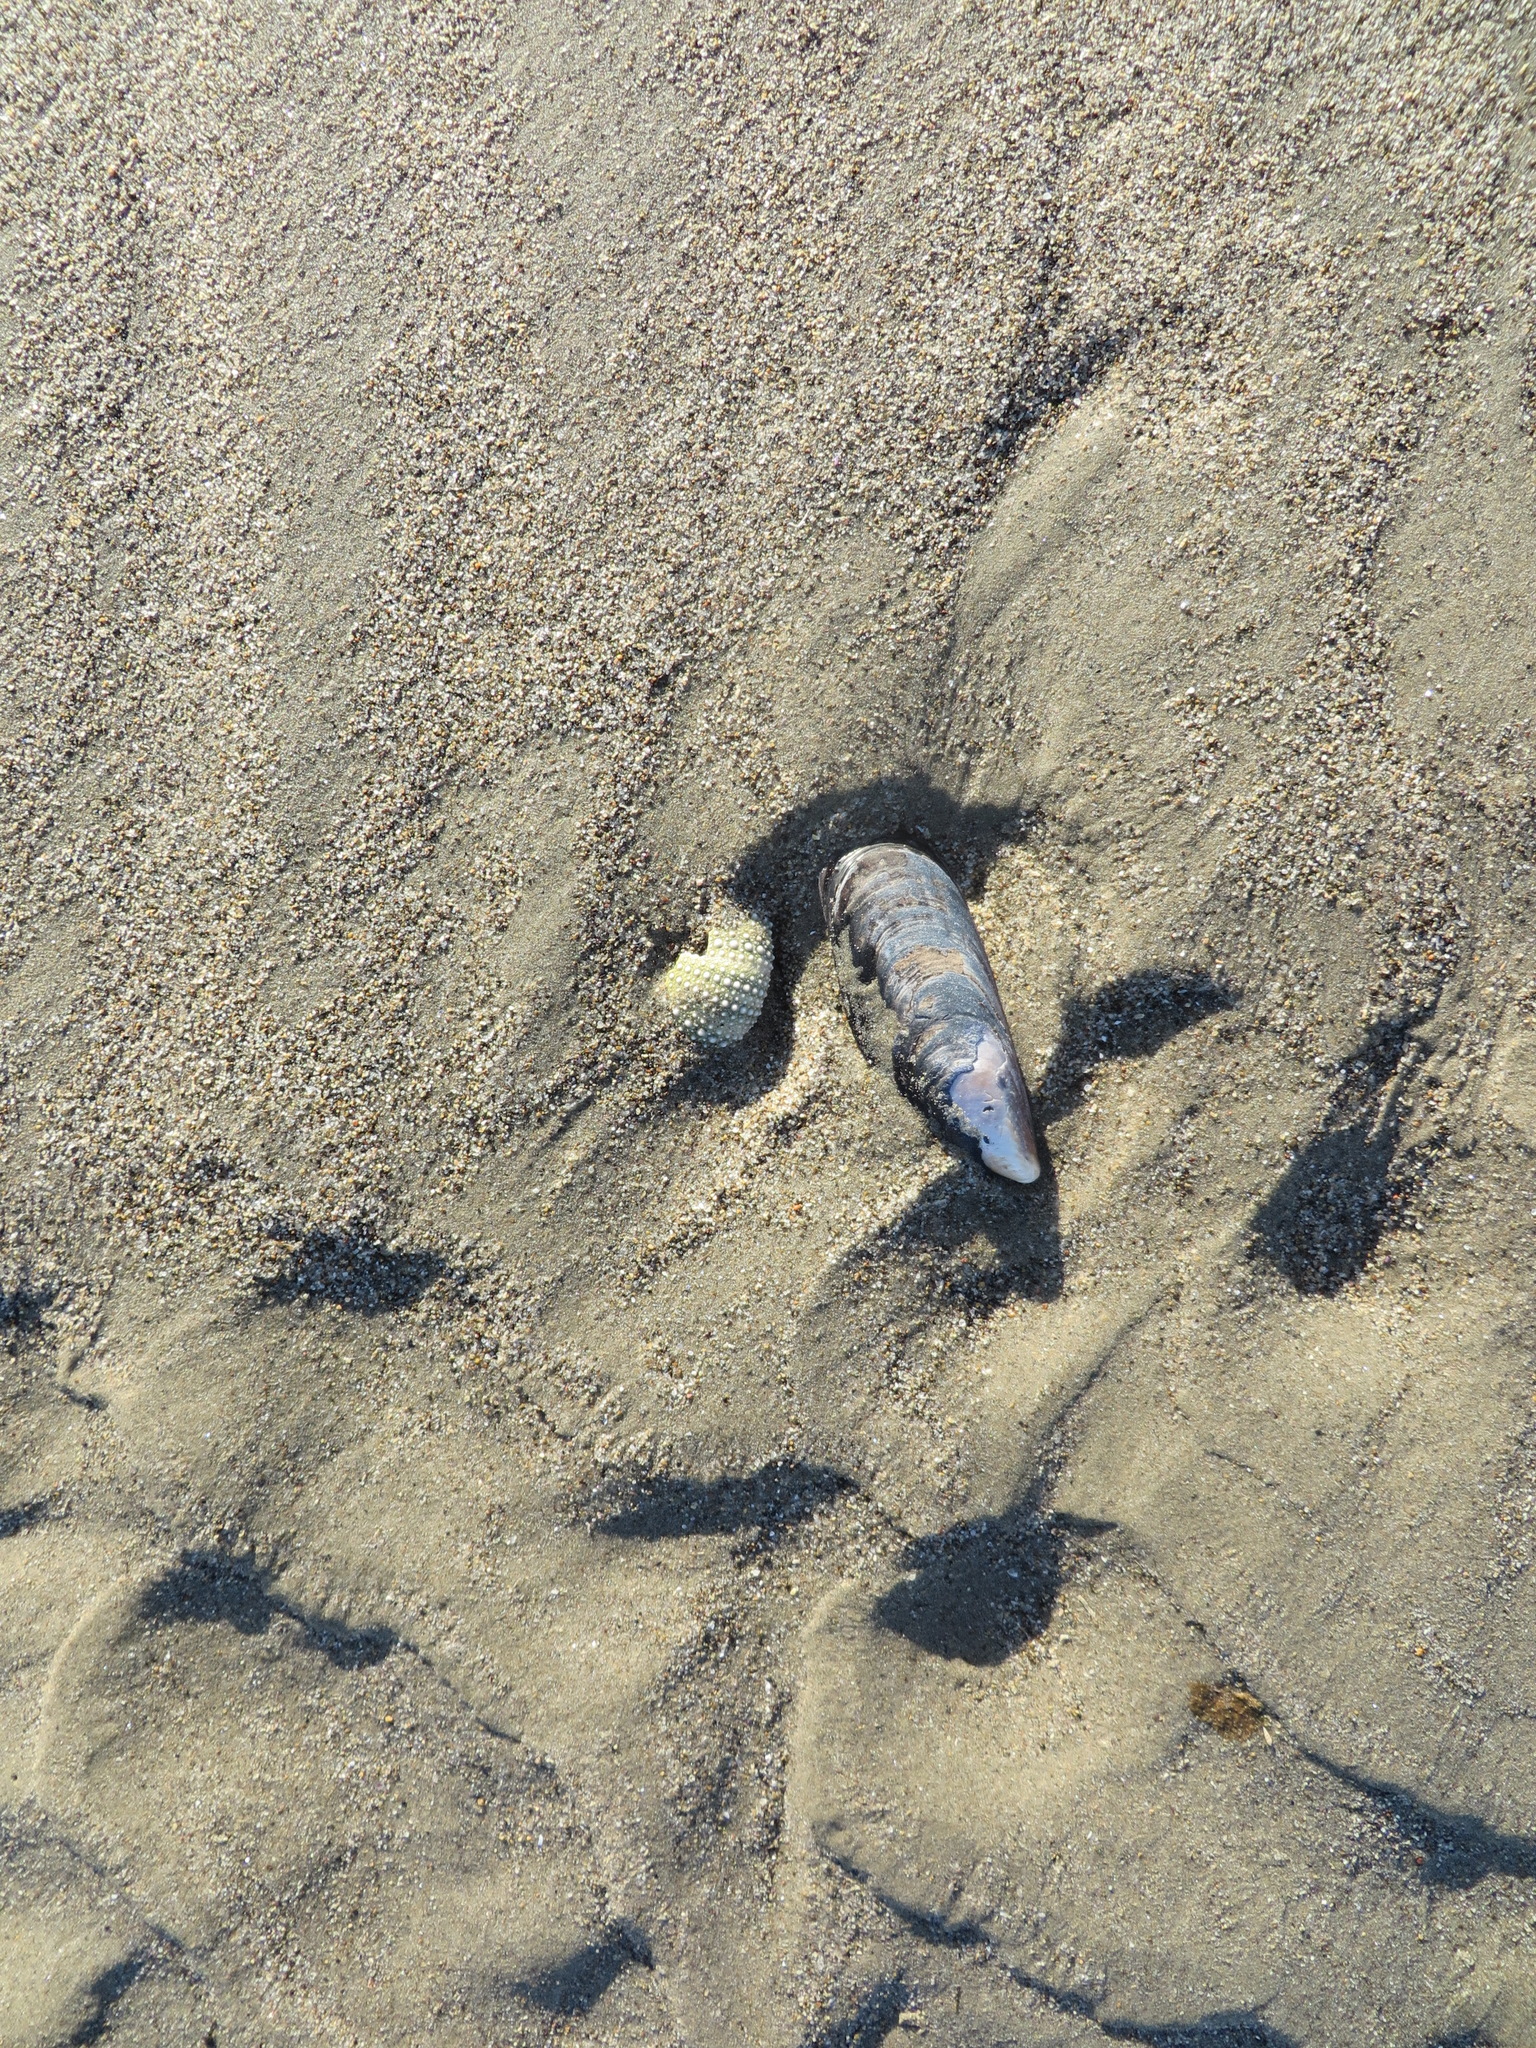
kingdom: Animalia
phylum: Mollusca
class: Bivalvia
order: Mytilida
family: Mytilidae
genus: Mytilus
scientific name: Mytilus californianus
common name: California mussel
